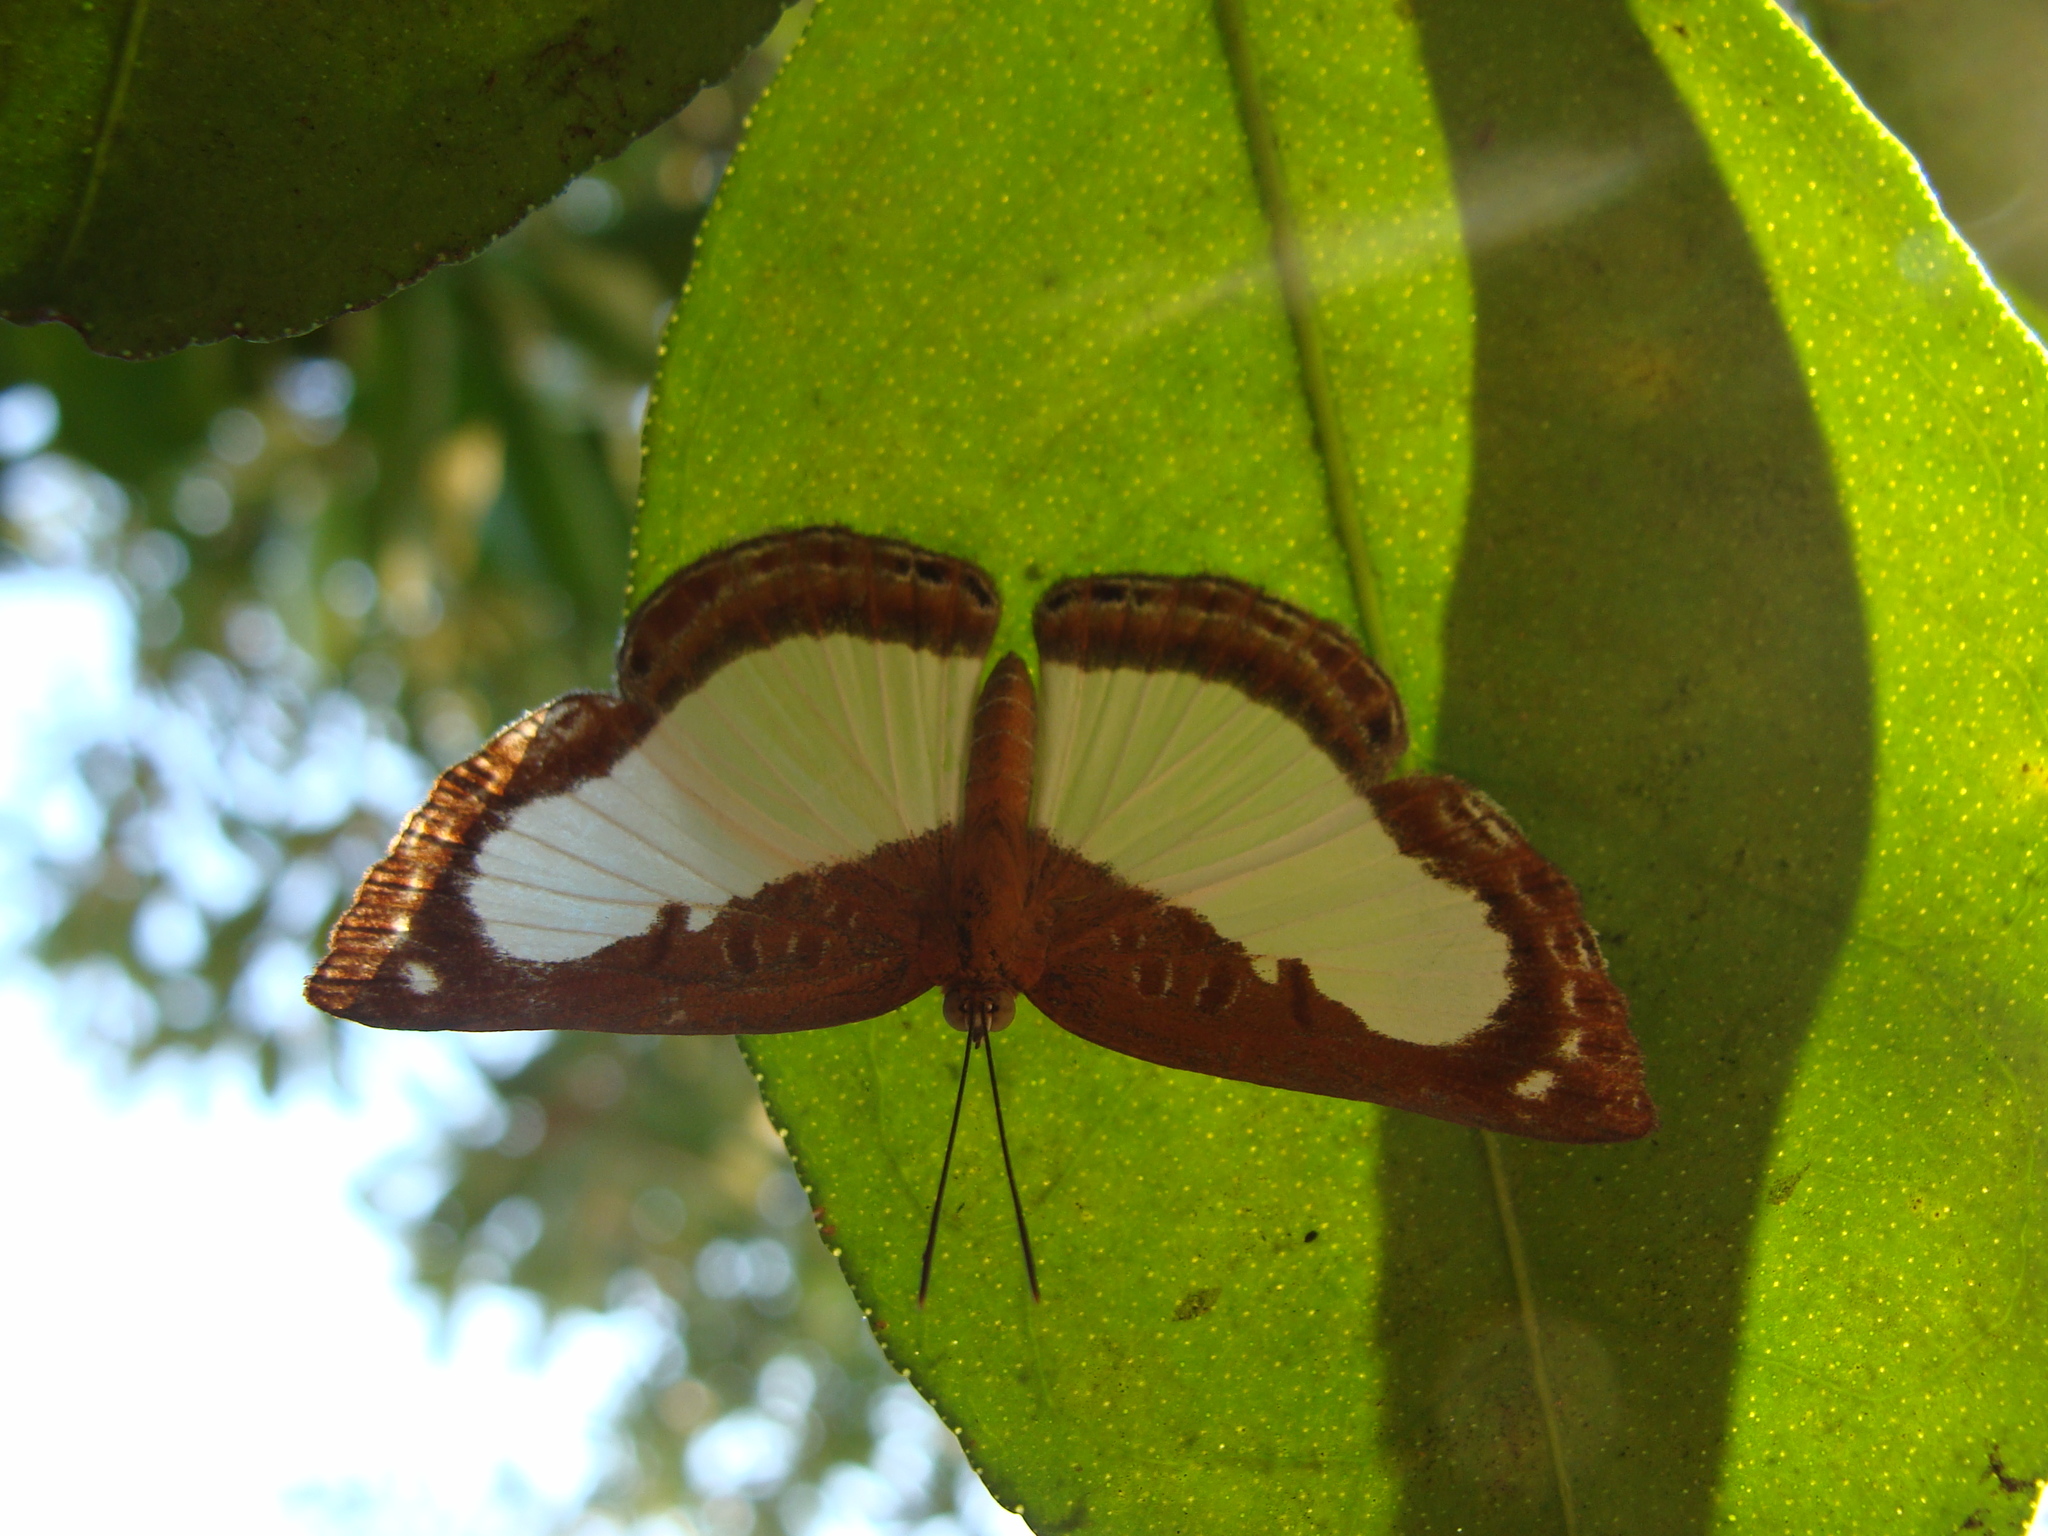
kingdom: Animalia
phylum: Arthropoda
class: Insecta
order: Lepidoptera
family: Riodinidae
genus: Synargis
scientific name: Synargis mycone
